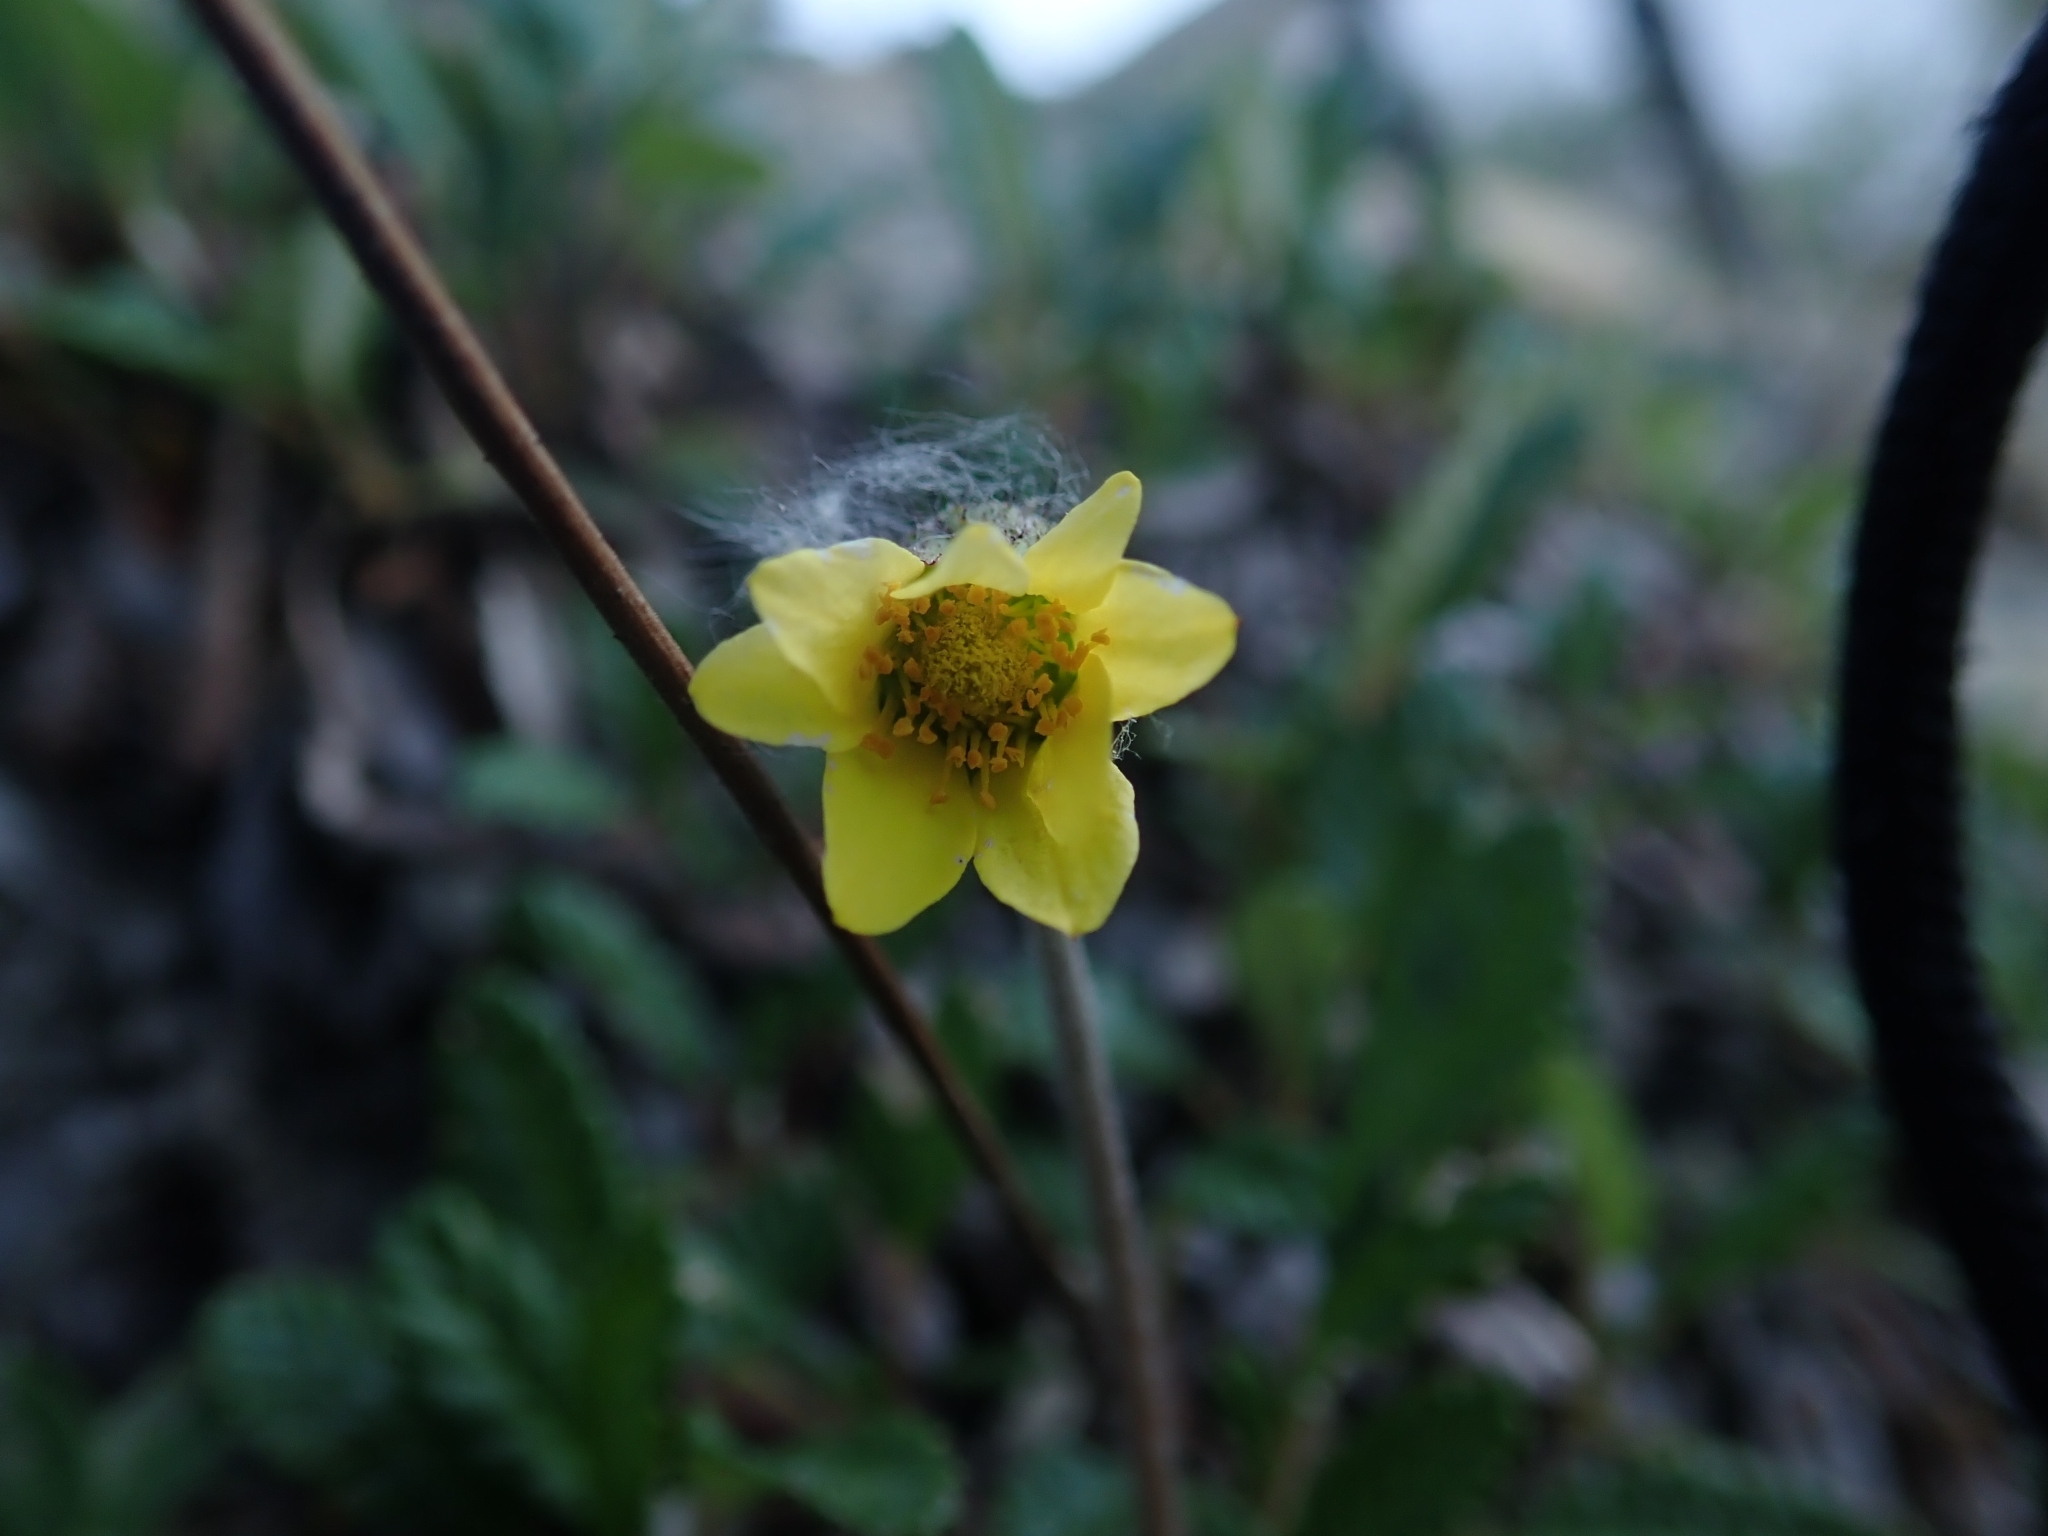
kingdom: Plantae
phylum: Tracheophyta
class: Magnoliopsida
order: Rosales
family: Rosaceae
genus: Dryas
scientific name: Dryas drummondii
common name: Drummond's dryad
